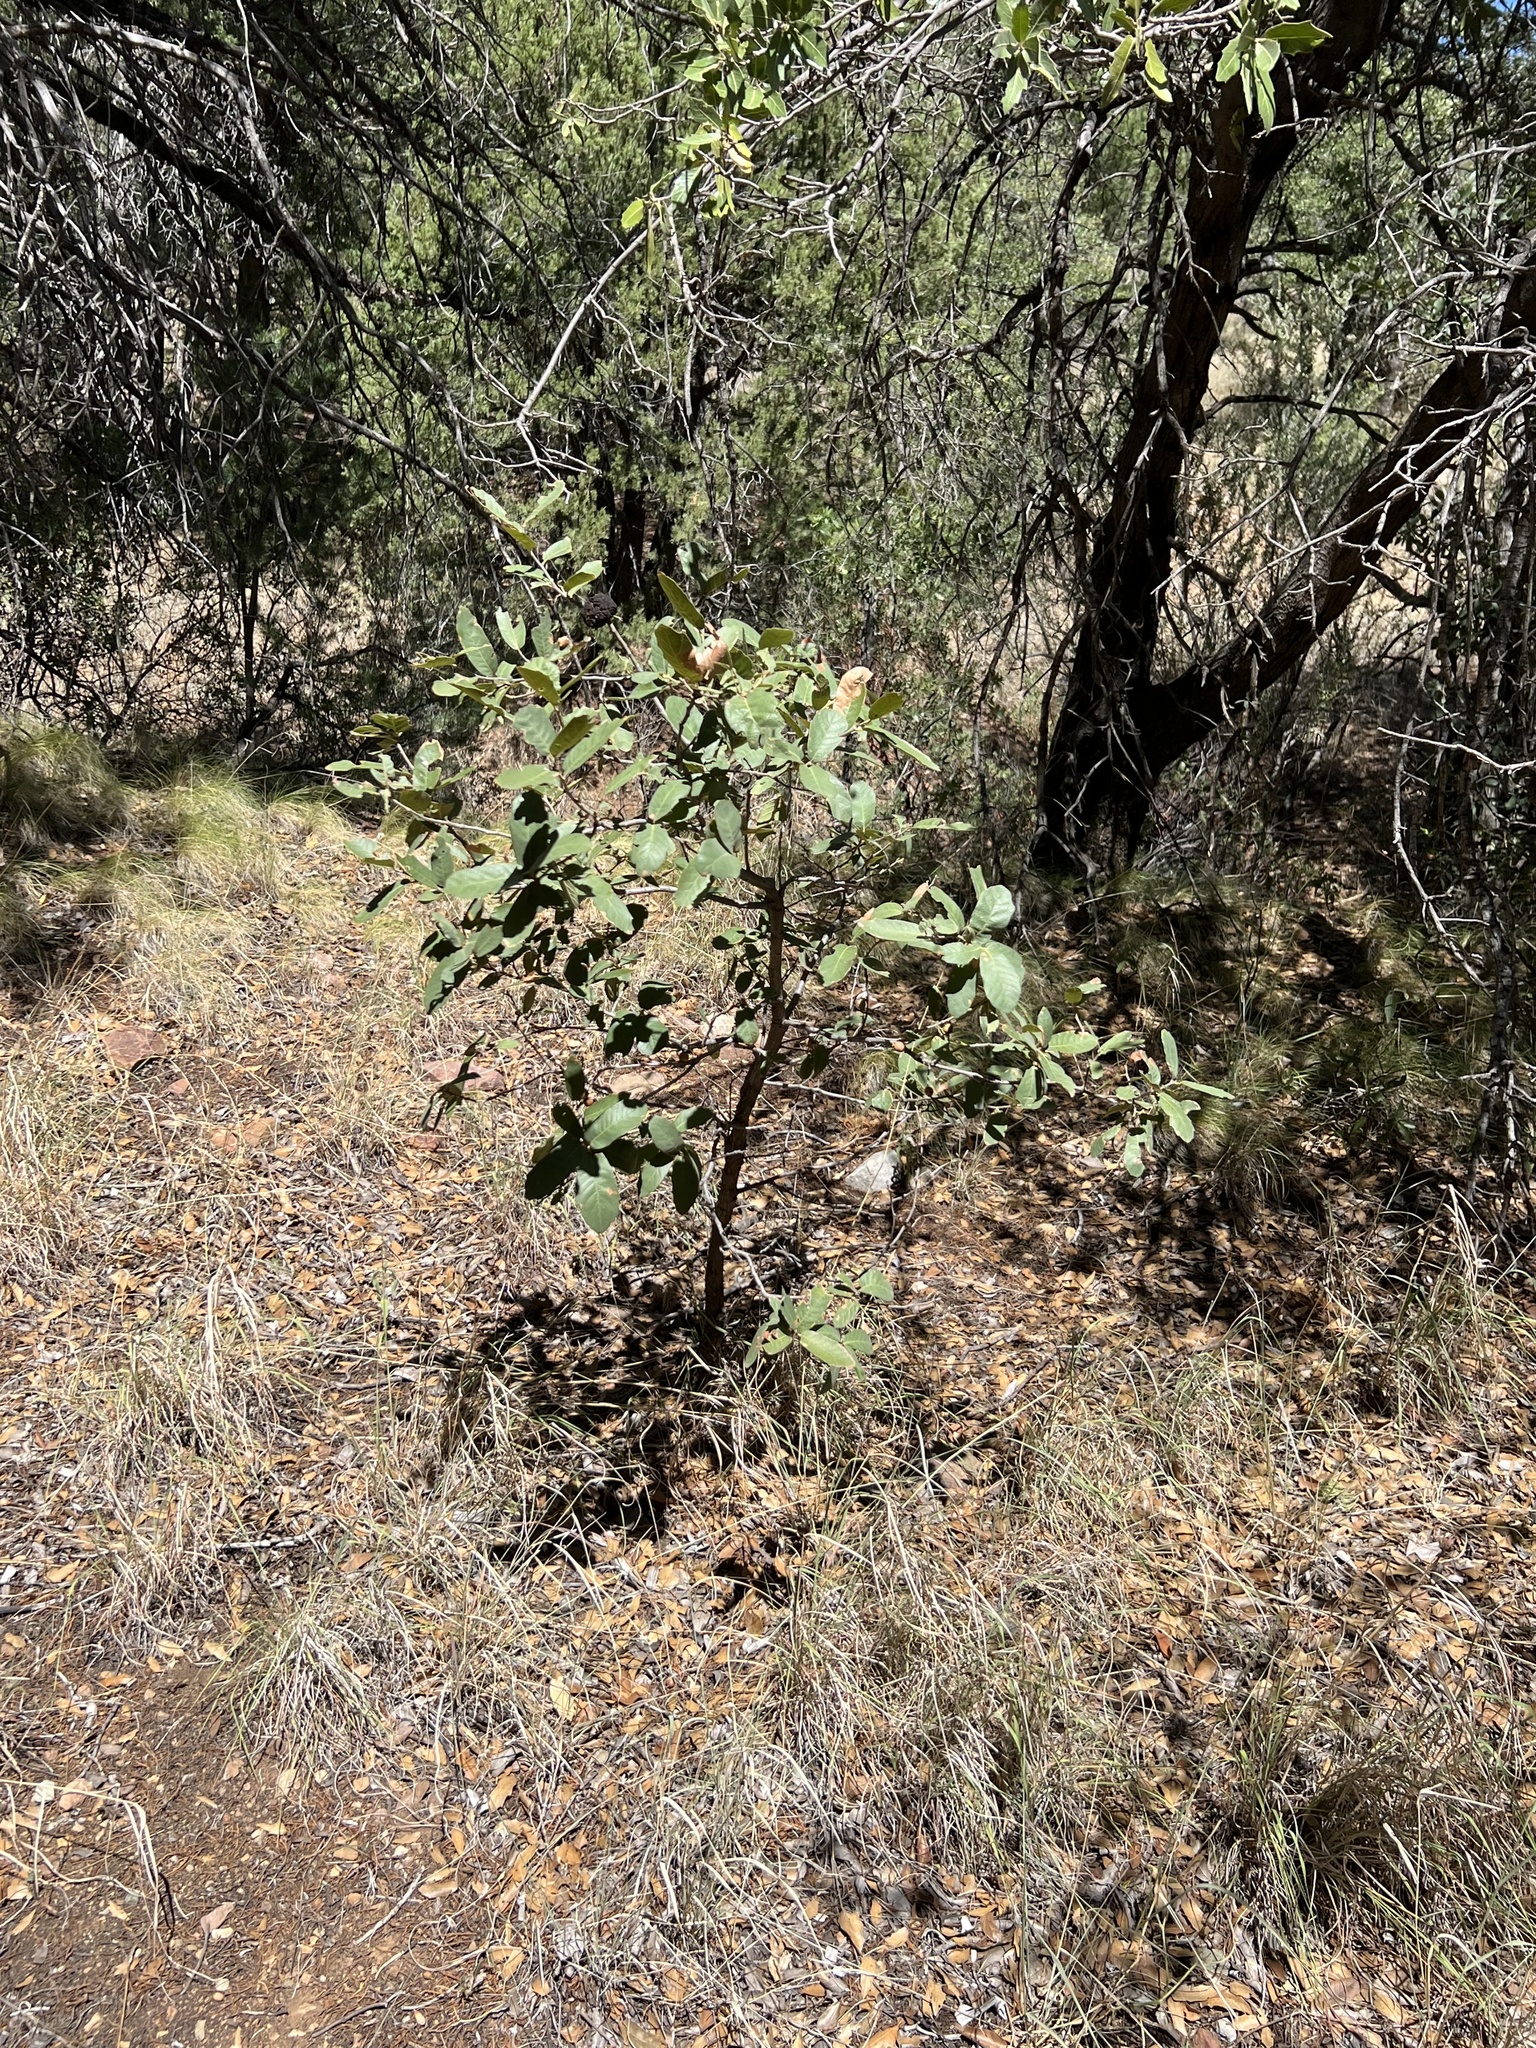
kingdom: Plantae
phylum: Tracheophyta
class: Magnoliopsida
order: Fagales
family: Fagaceae
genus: Quercus
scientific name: Quercus arizonica
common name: Arizona white oak
